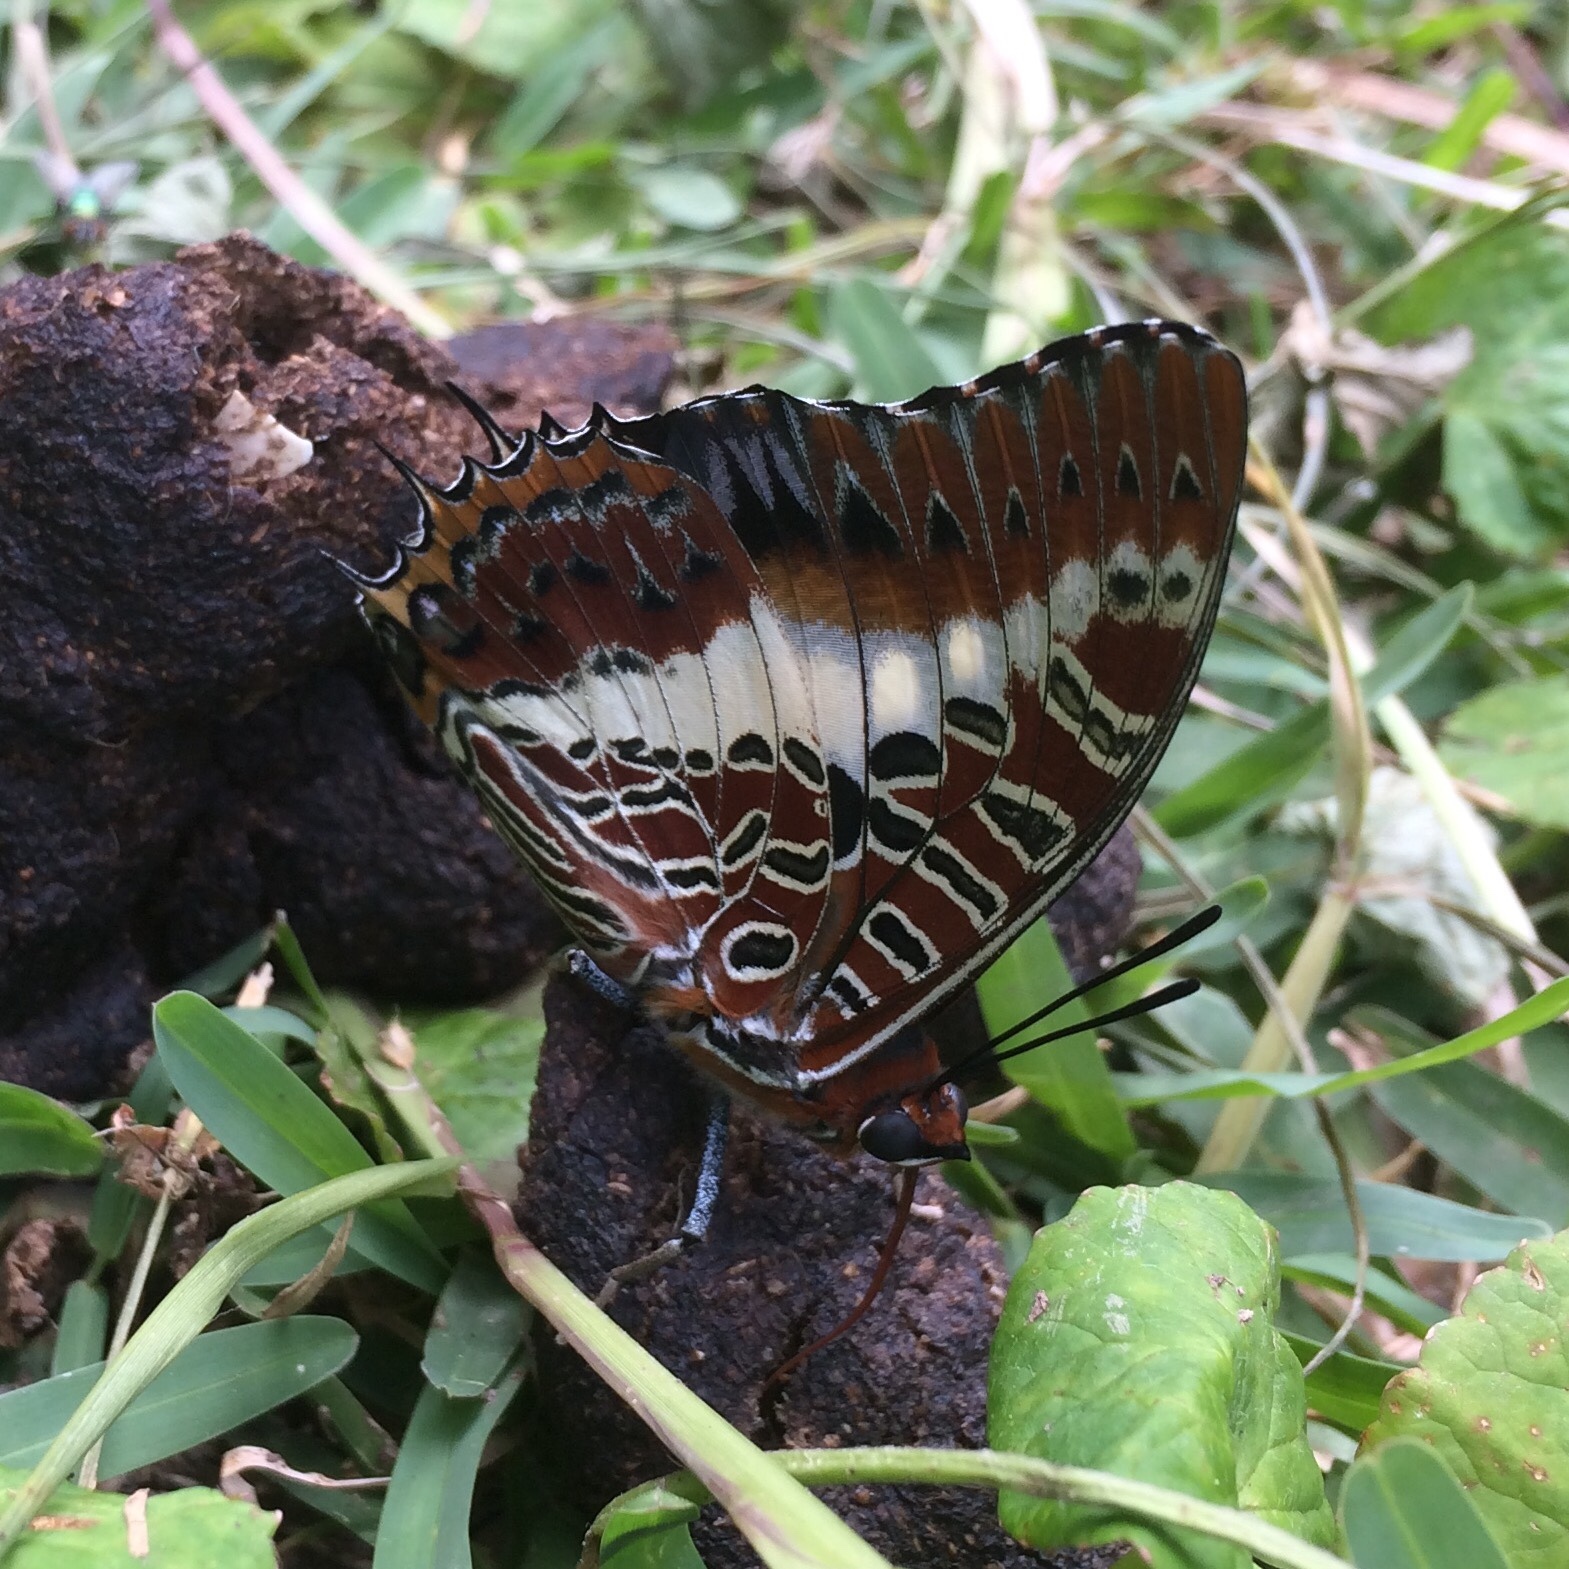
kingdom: Animalia
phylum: Arthropoda
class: Insecta
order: Lepidoptera
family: Nymphalidae
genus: Charaxes
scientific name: Charaxes brutus
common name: White-barred charaxes
